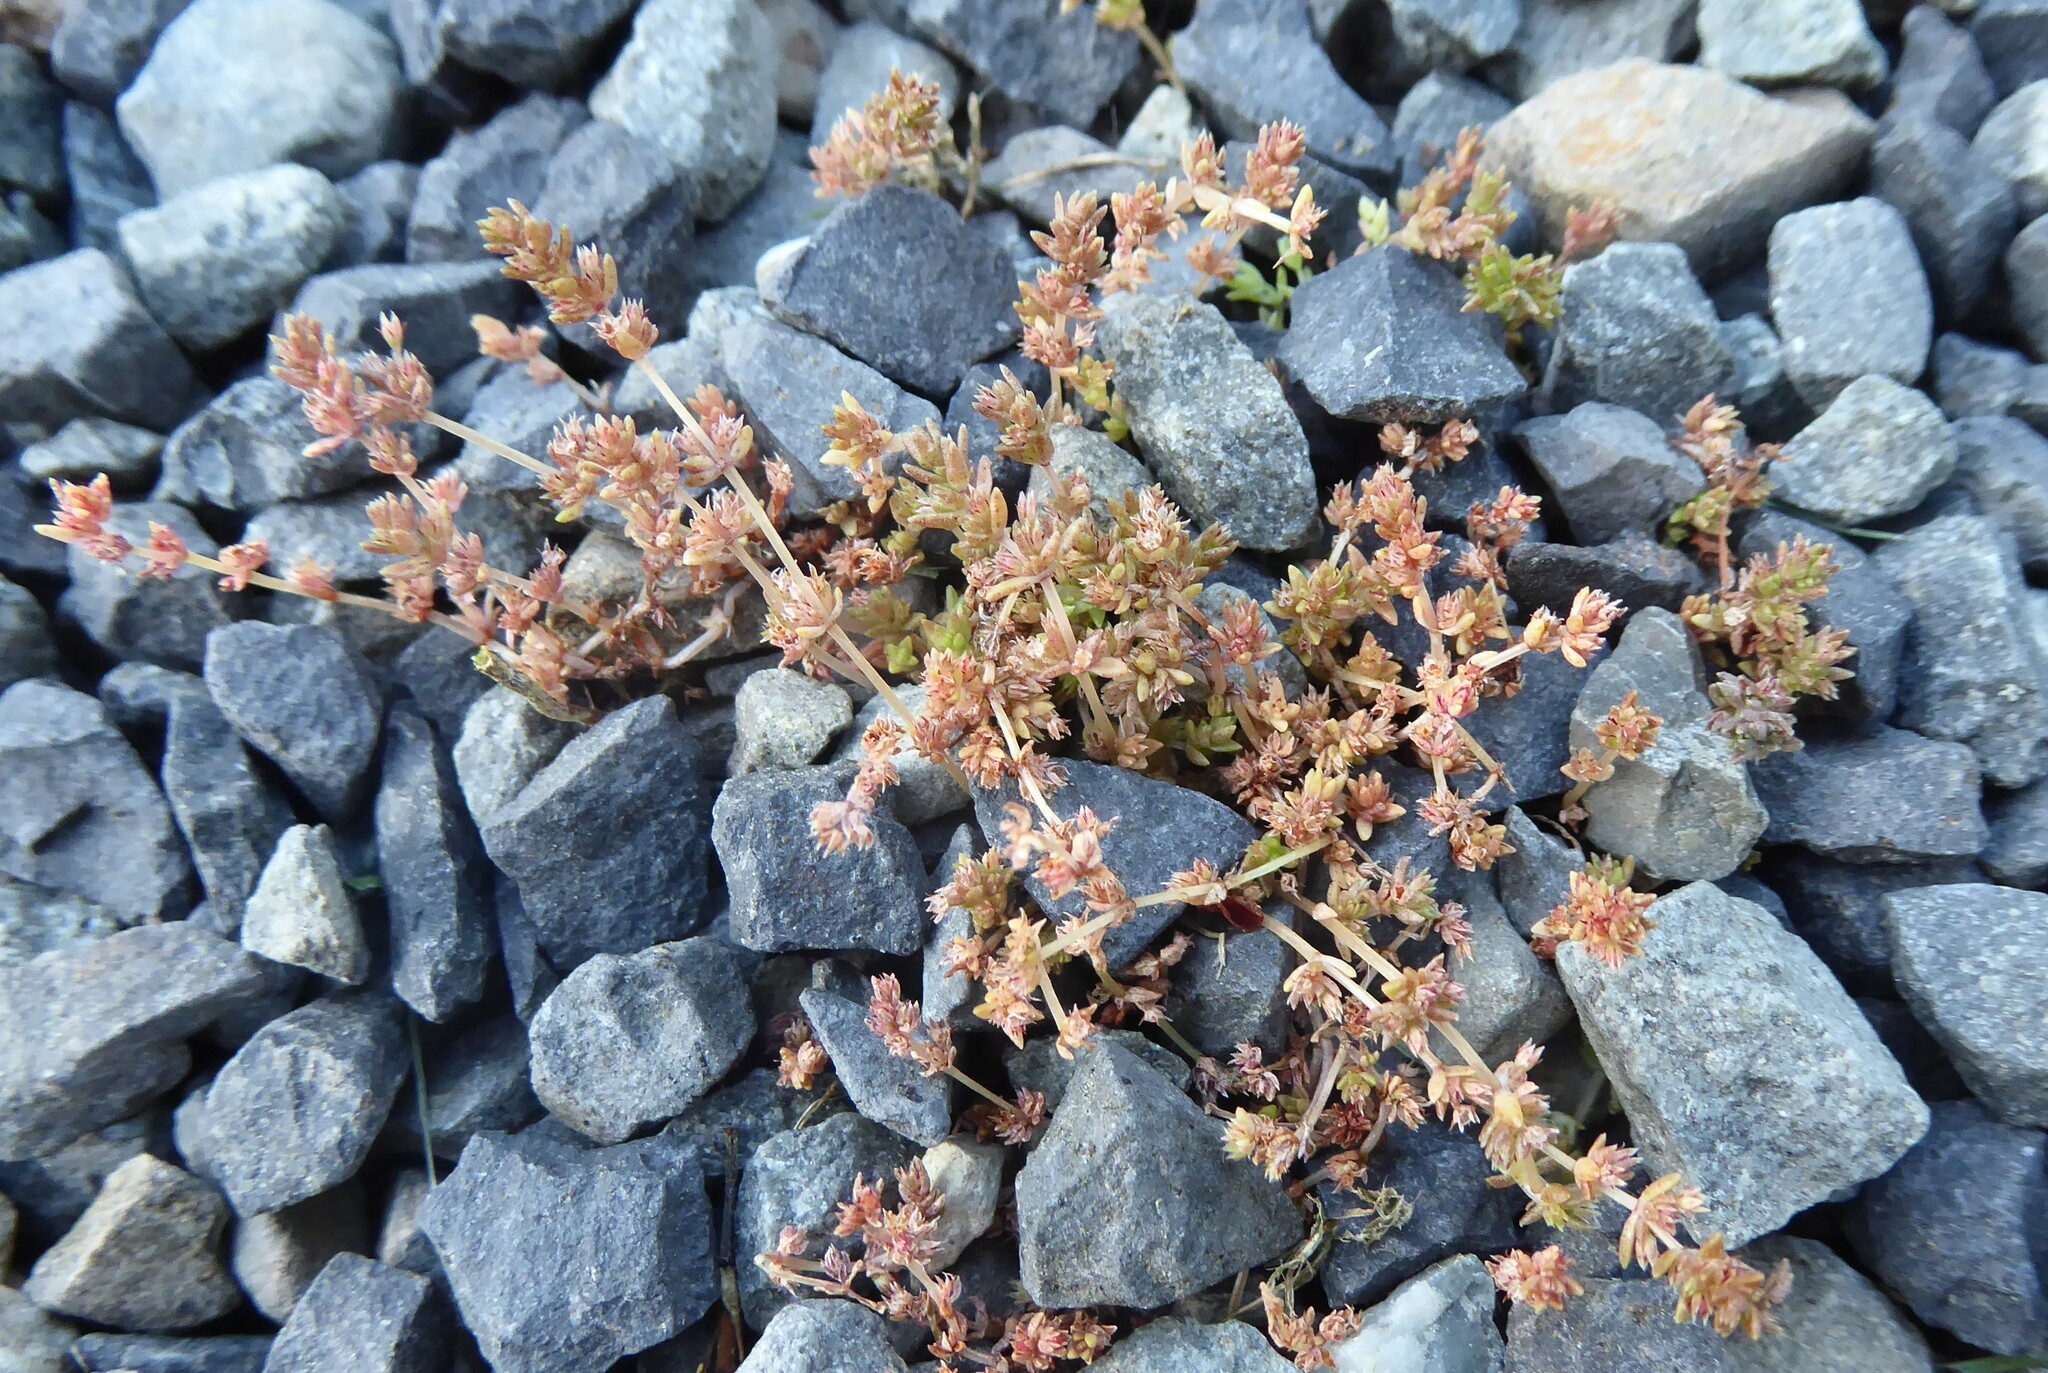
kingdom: Plantae
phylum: Tracheophyta
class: Magnoliopsida
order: Saxifragales
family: Crassulaceae
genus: Crassula
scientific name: Crassula mataikona
